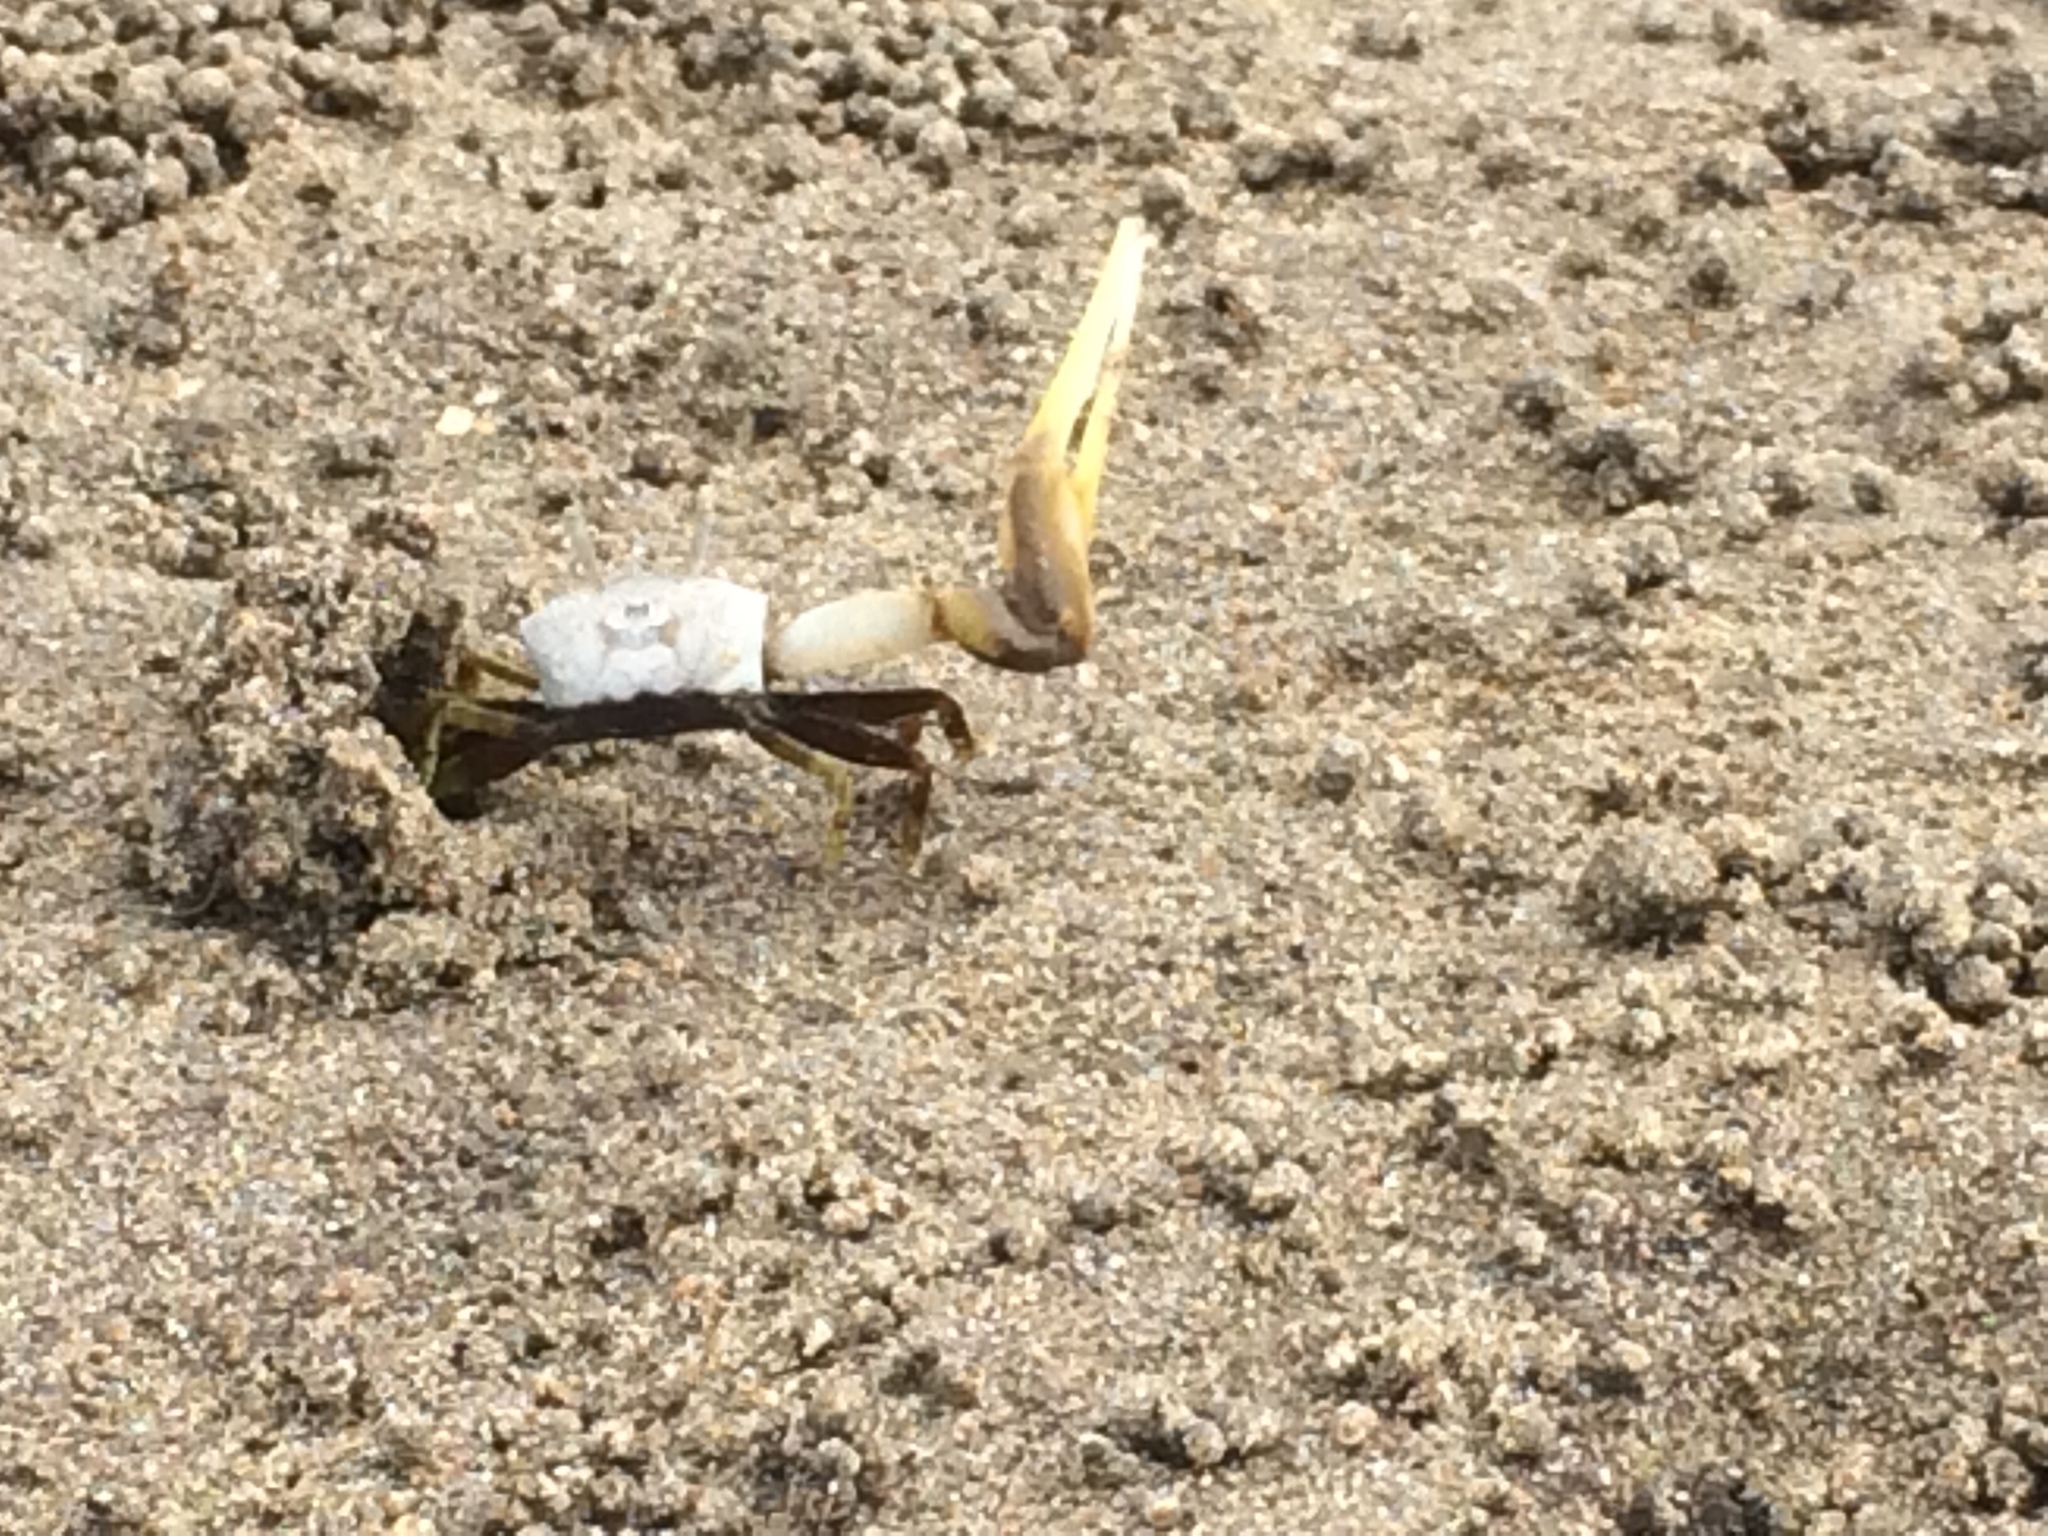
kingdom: Animalia
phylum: Arthropoda
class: Malacostraca
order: Decapoda
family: Ocypodidae
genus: Leptuca
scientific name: Leptuca leptodactyla
